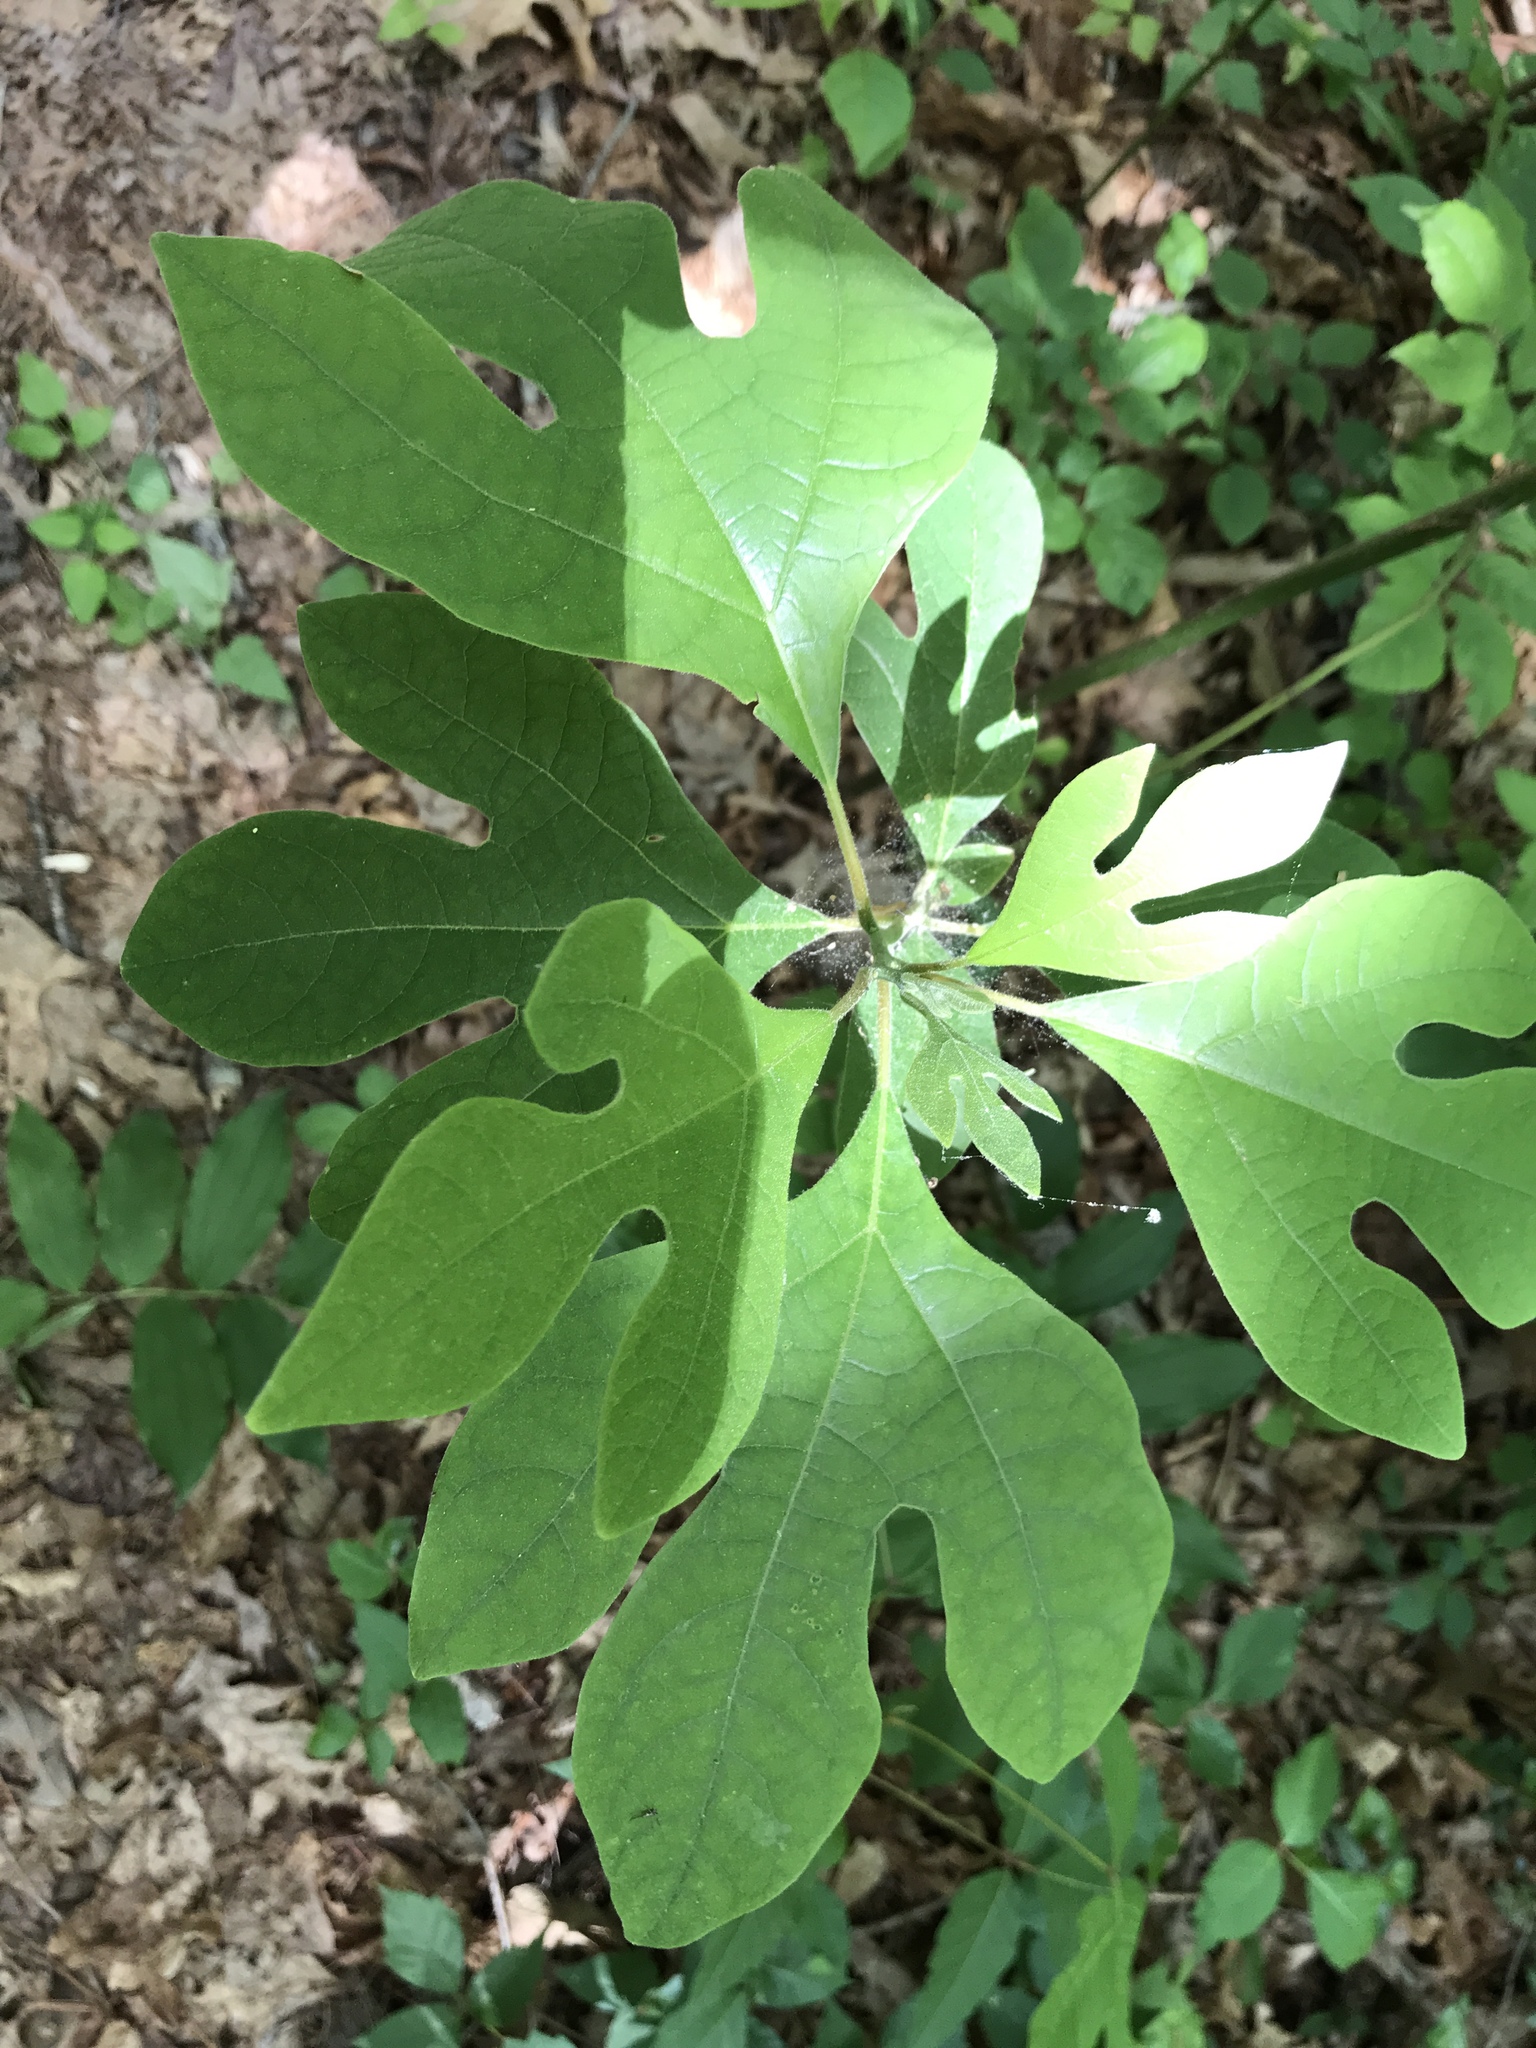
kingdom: Plantae
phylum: Tracheophyta
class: Magnoliopsida
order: Laurales
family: Lauraceae
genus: Sassafras
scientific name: Sassafras albidum
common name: Sassafras
